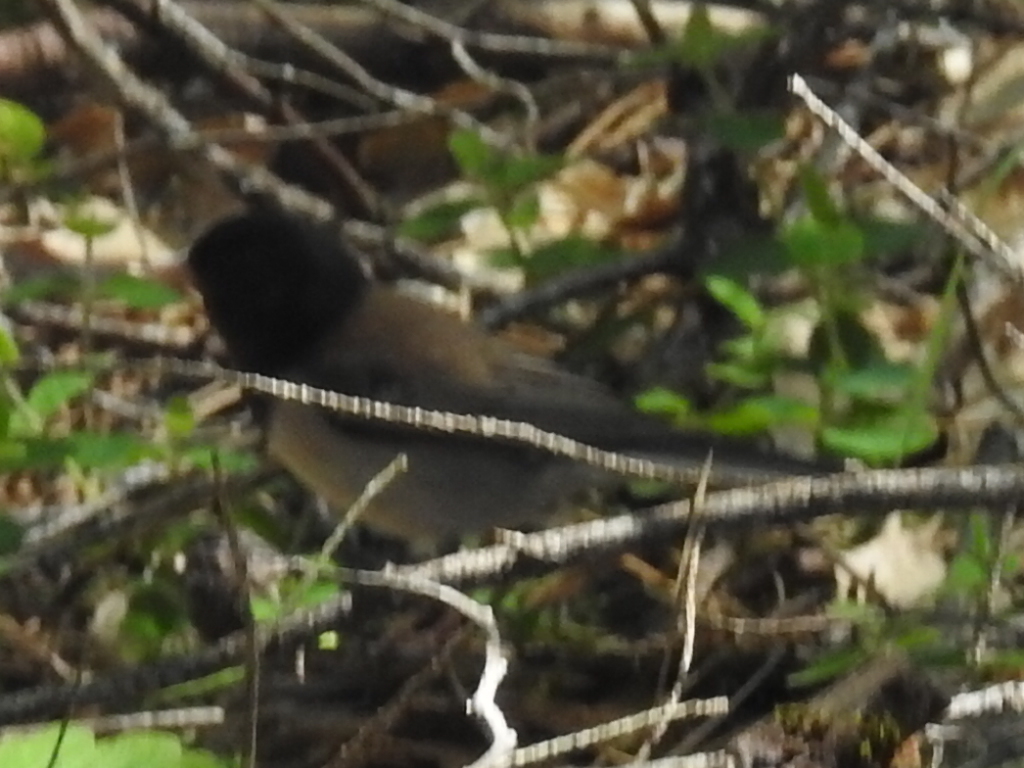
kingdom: Animalia
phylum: Chordata
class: Aves
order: Passeriformes
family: Passerellidae
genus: Junco
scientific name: Junco hyemalis
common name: Dark-eyed junco
